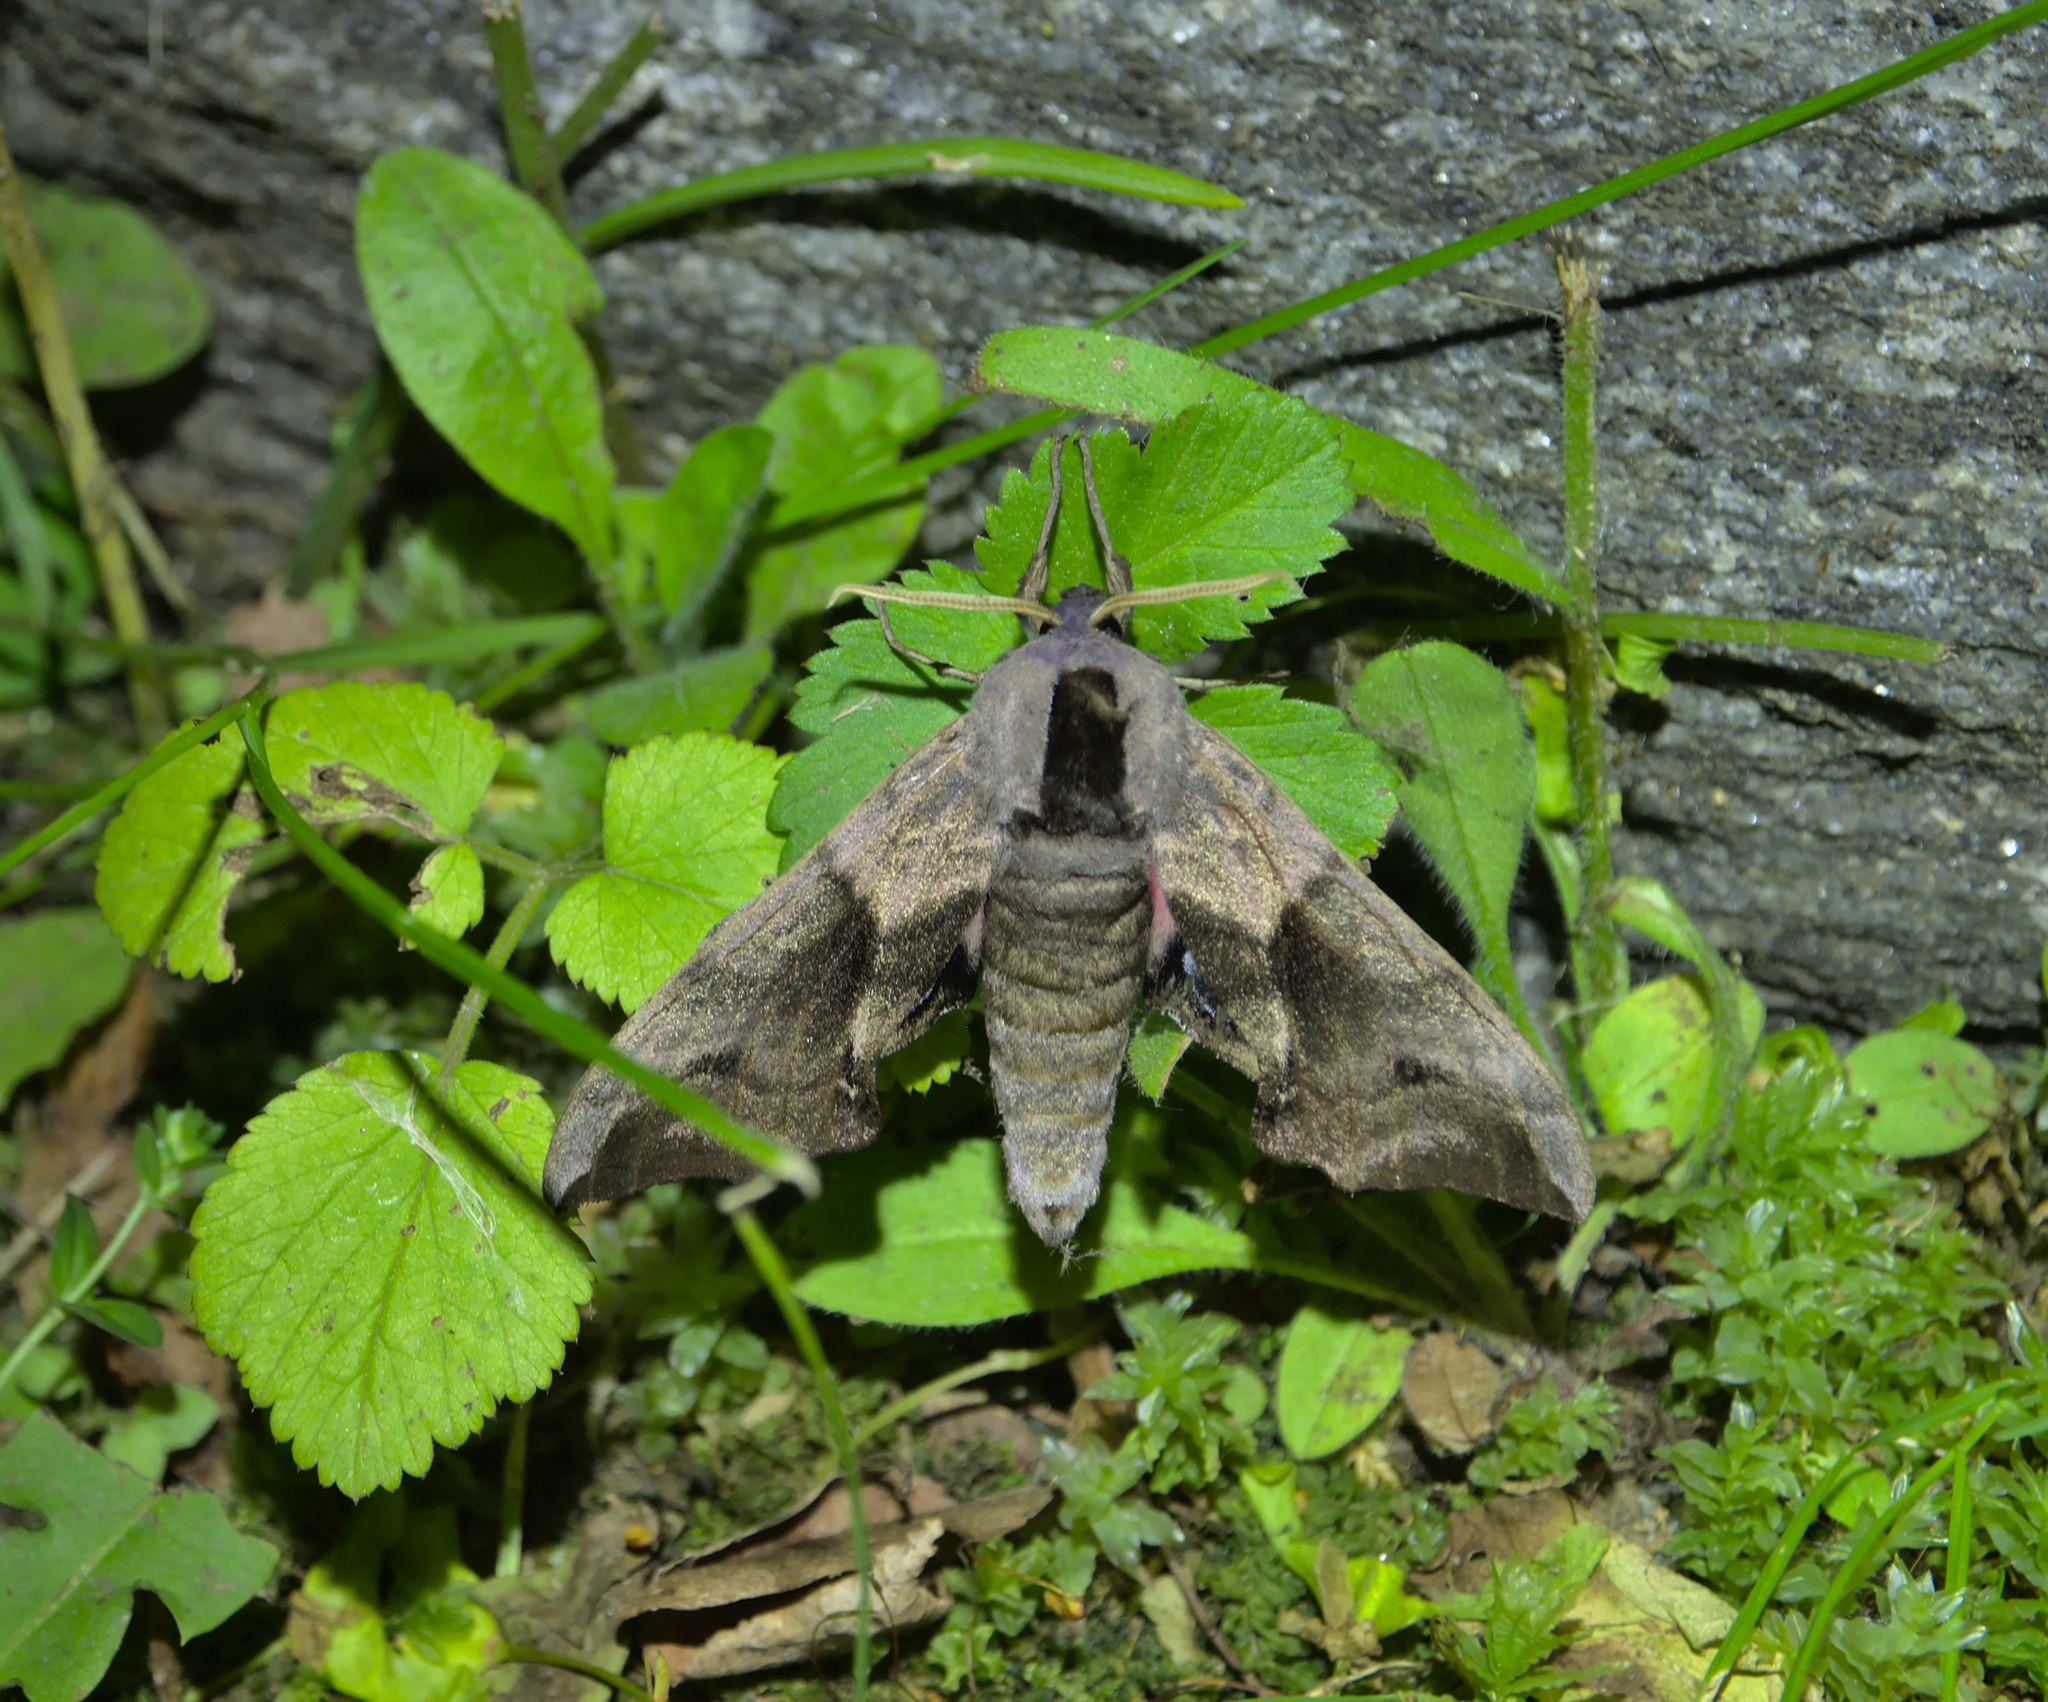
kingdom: Animalia
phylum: Arthropoda
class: Insecta
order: Lepidoptera
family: Sphingidae
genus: Smerinthus
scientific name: Smerinthus ocellata
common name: Eyed hawk-moth
